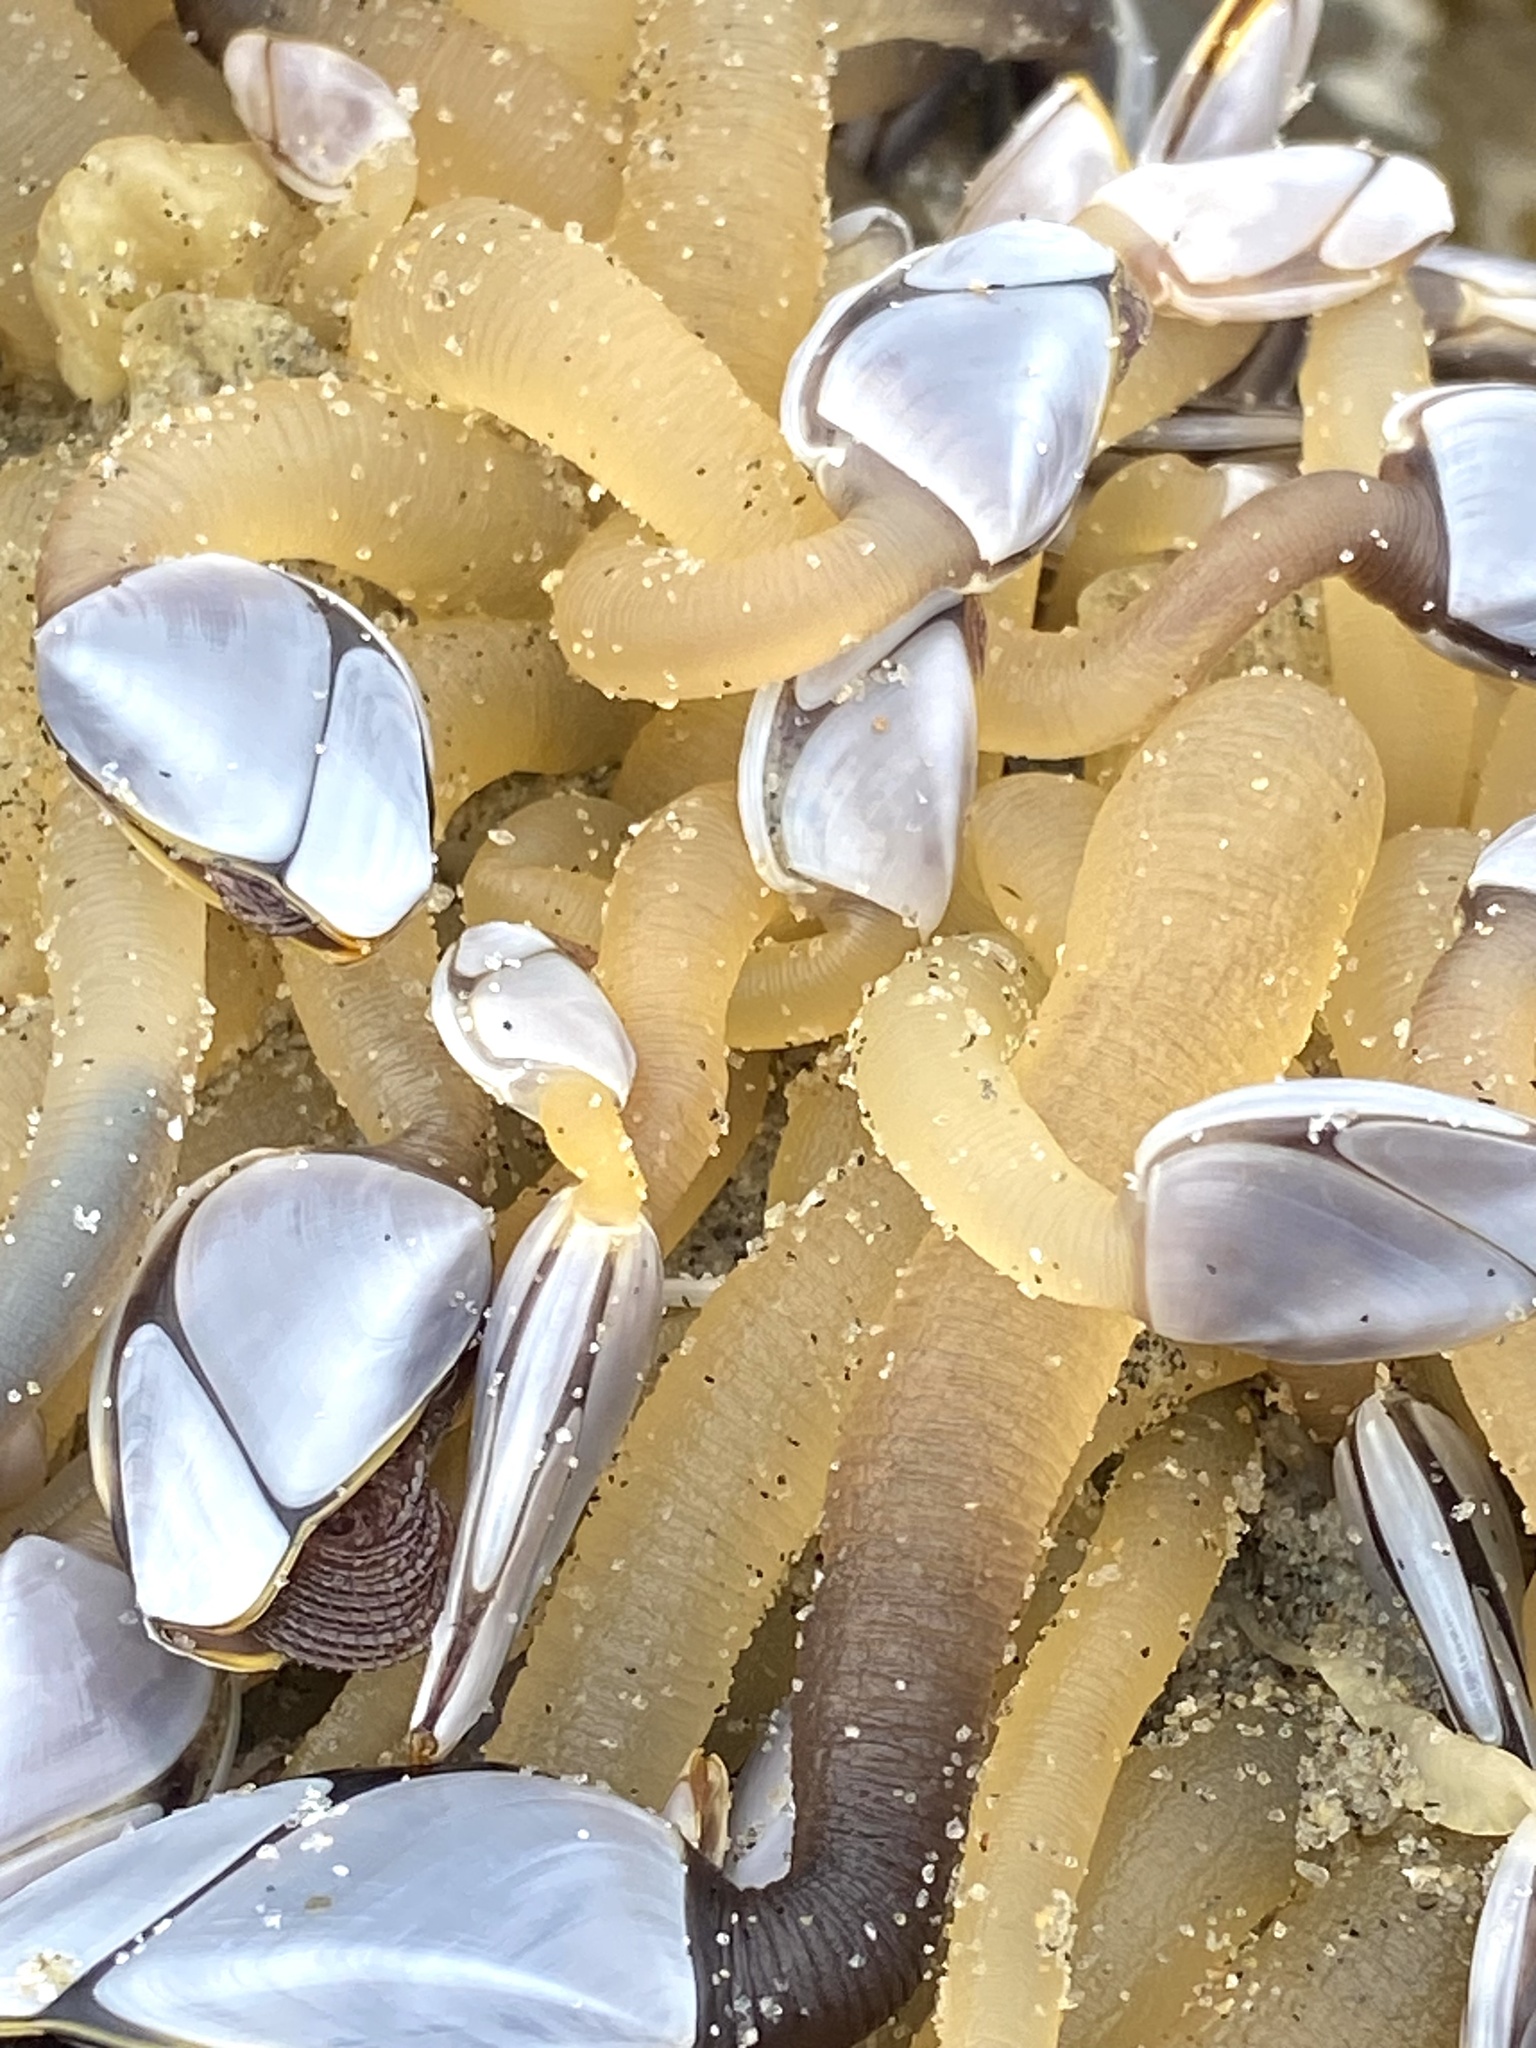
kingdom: Animalia
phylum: Arthropoda
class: Maxillopoda
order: Pedunculata
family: Lepadidae
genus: Lepas
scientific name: Lepas anatifera
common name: Common goose barnacle
